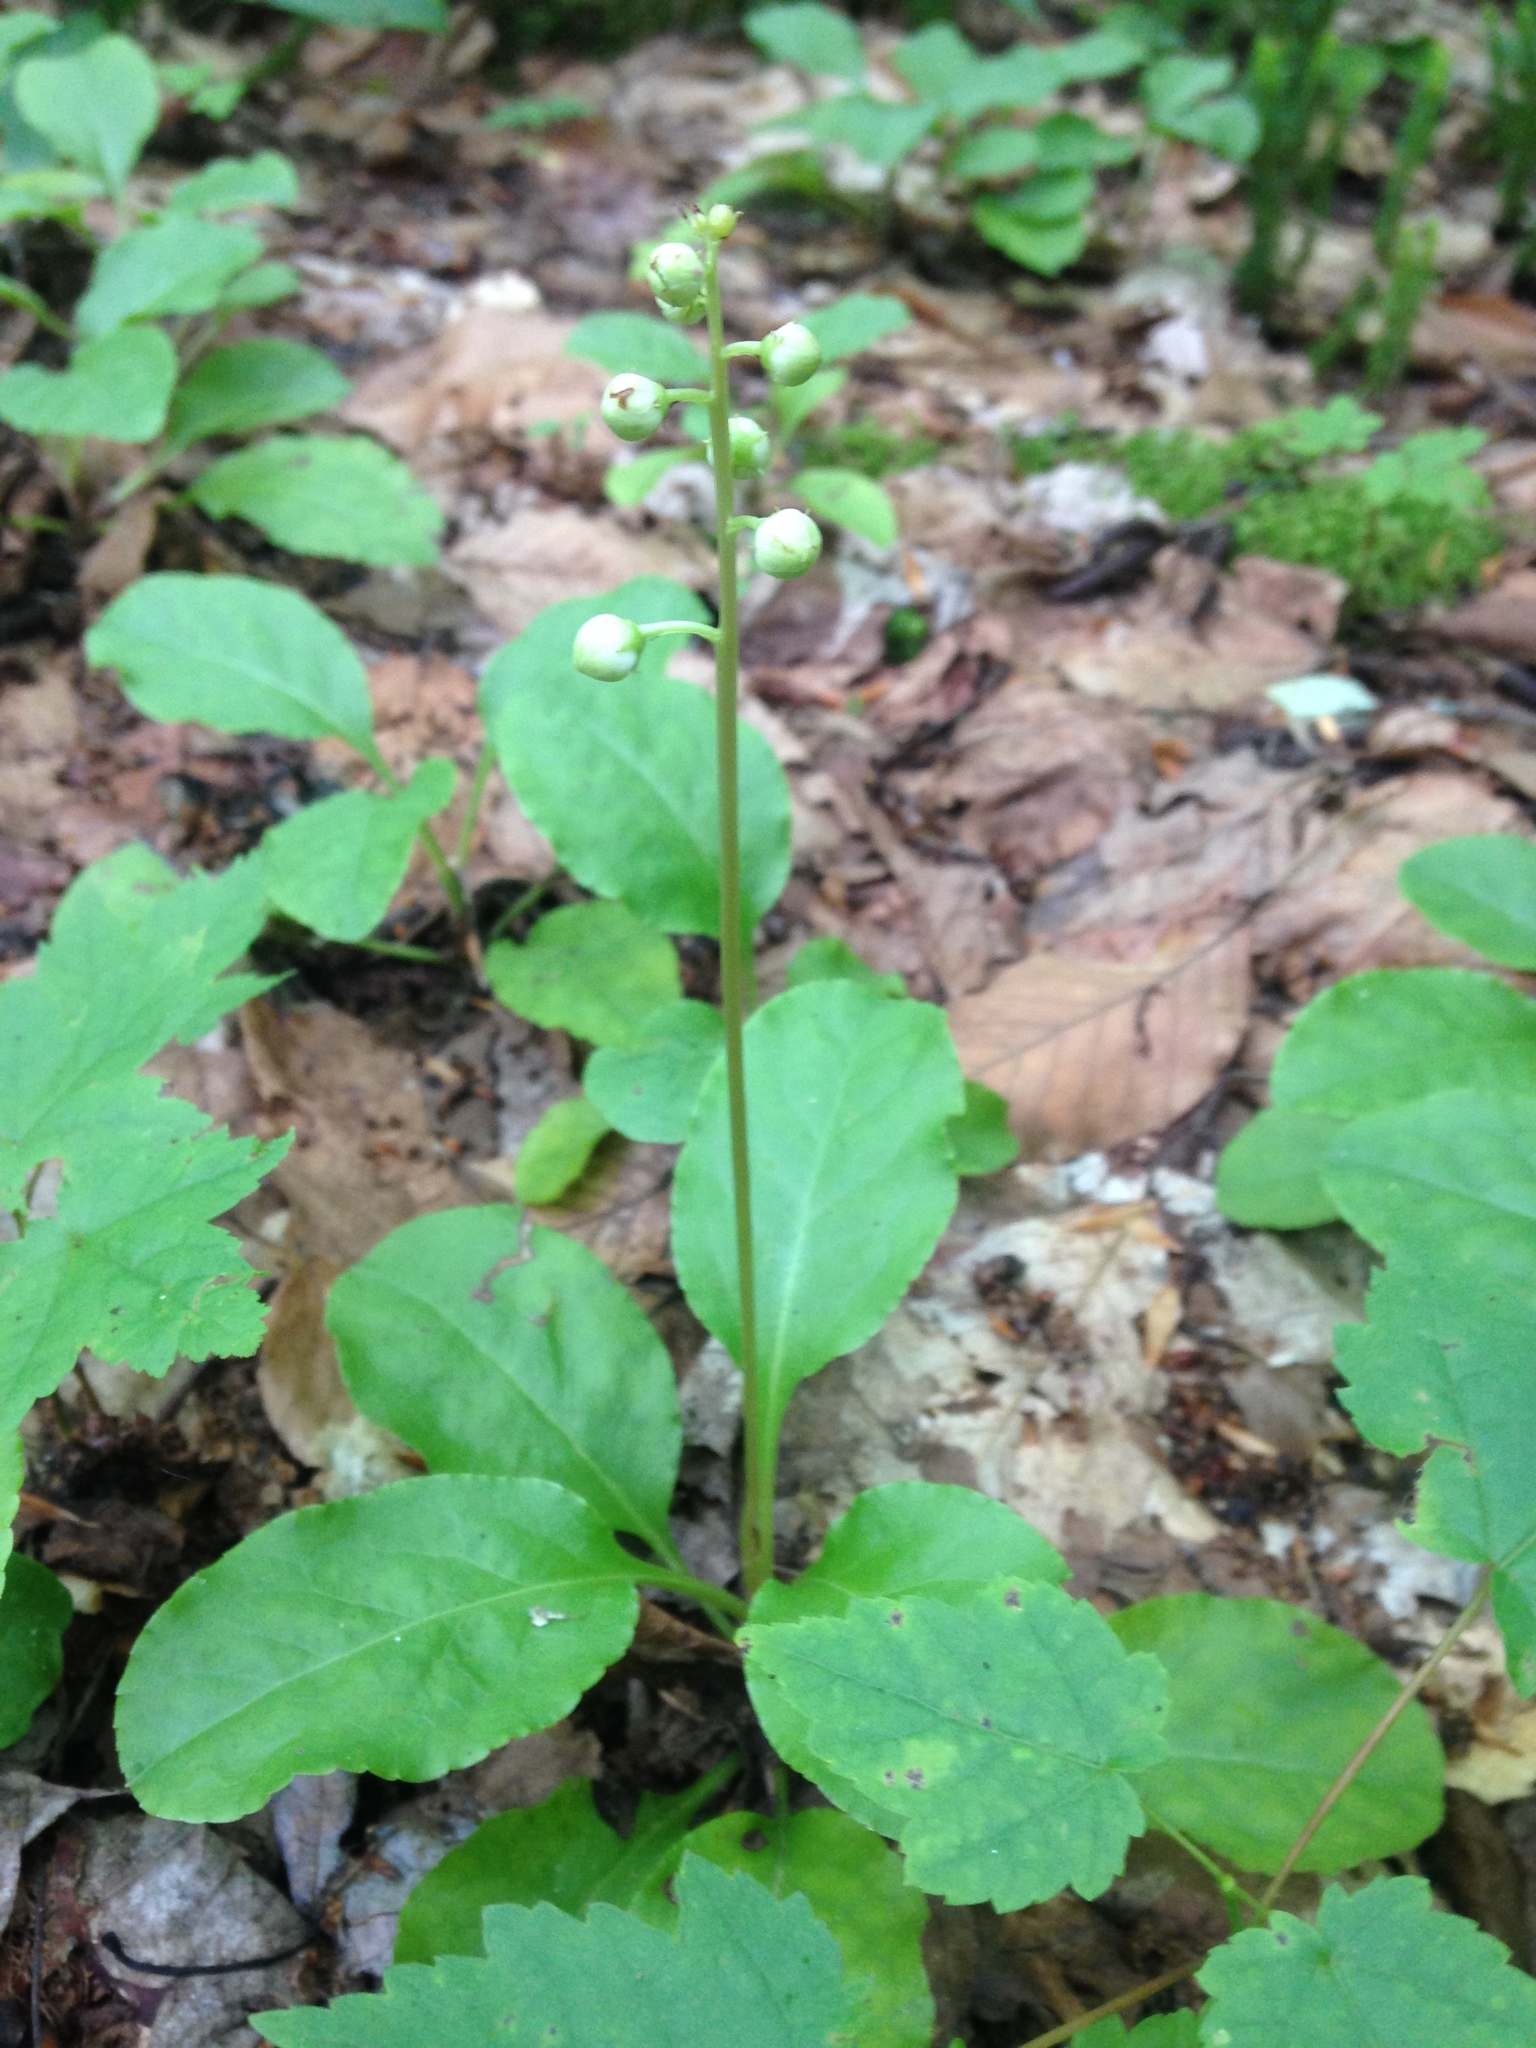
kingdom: Plantae
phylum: Tracheophyta
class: Magnoliopsida
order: Ericales
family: Ericaceae
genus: Pyrola
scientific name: Pyrola elliptica
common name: Shinleaf
